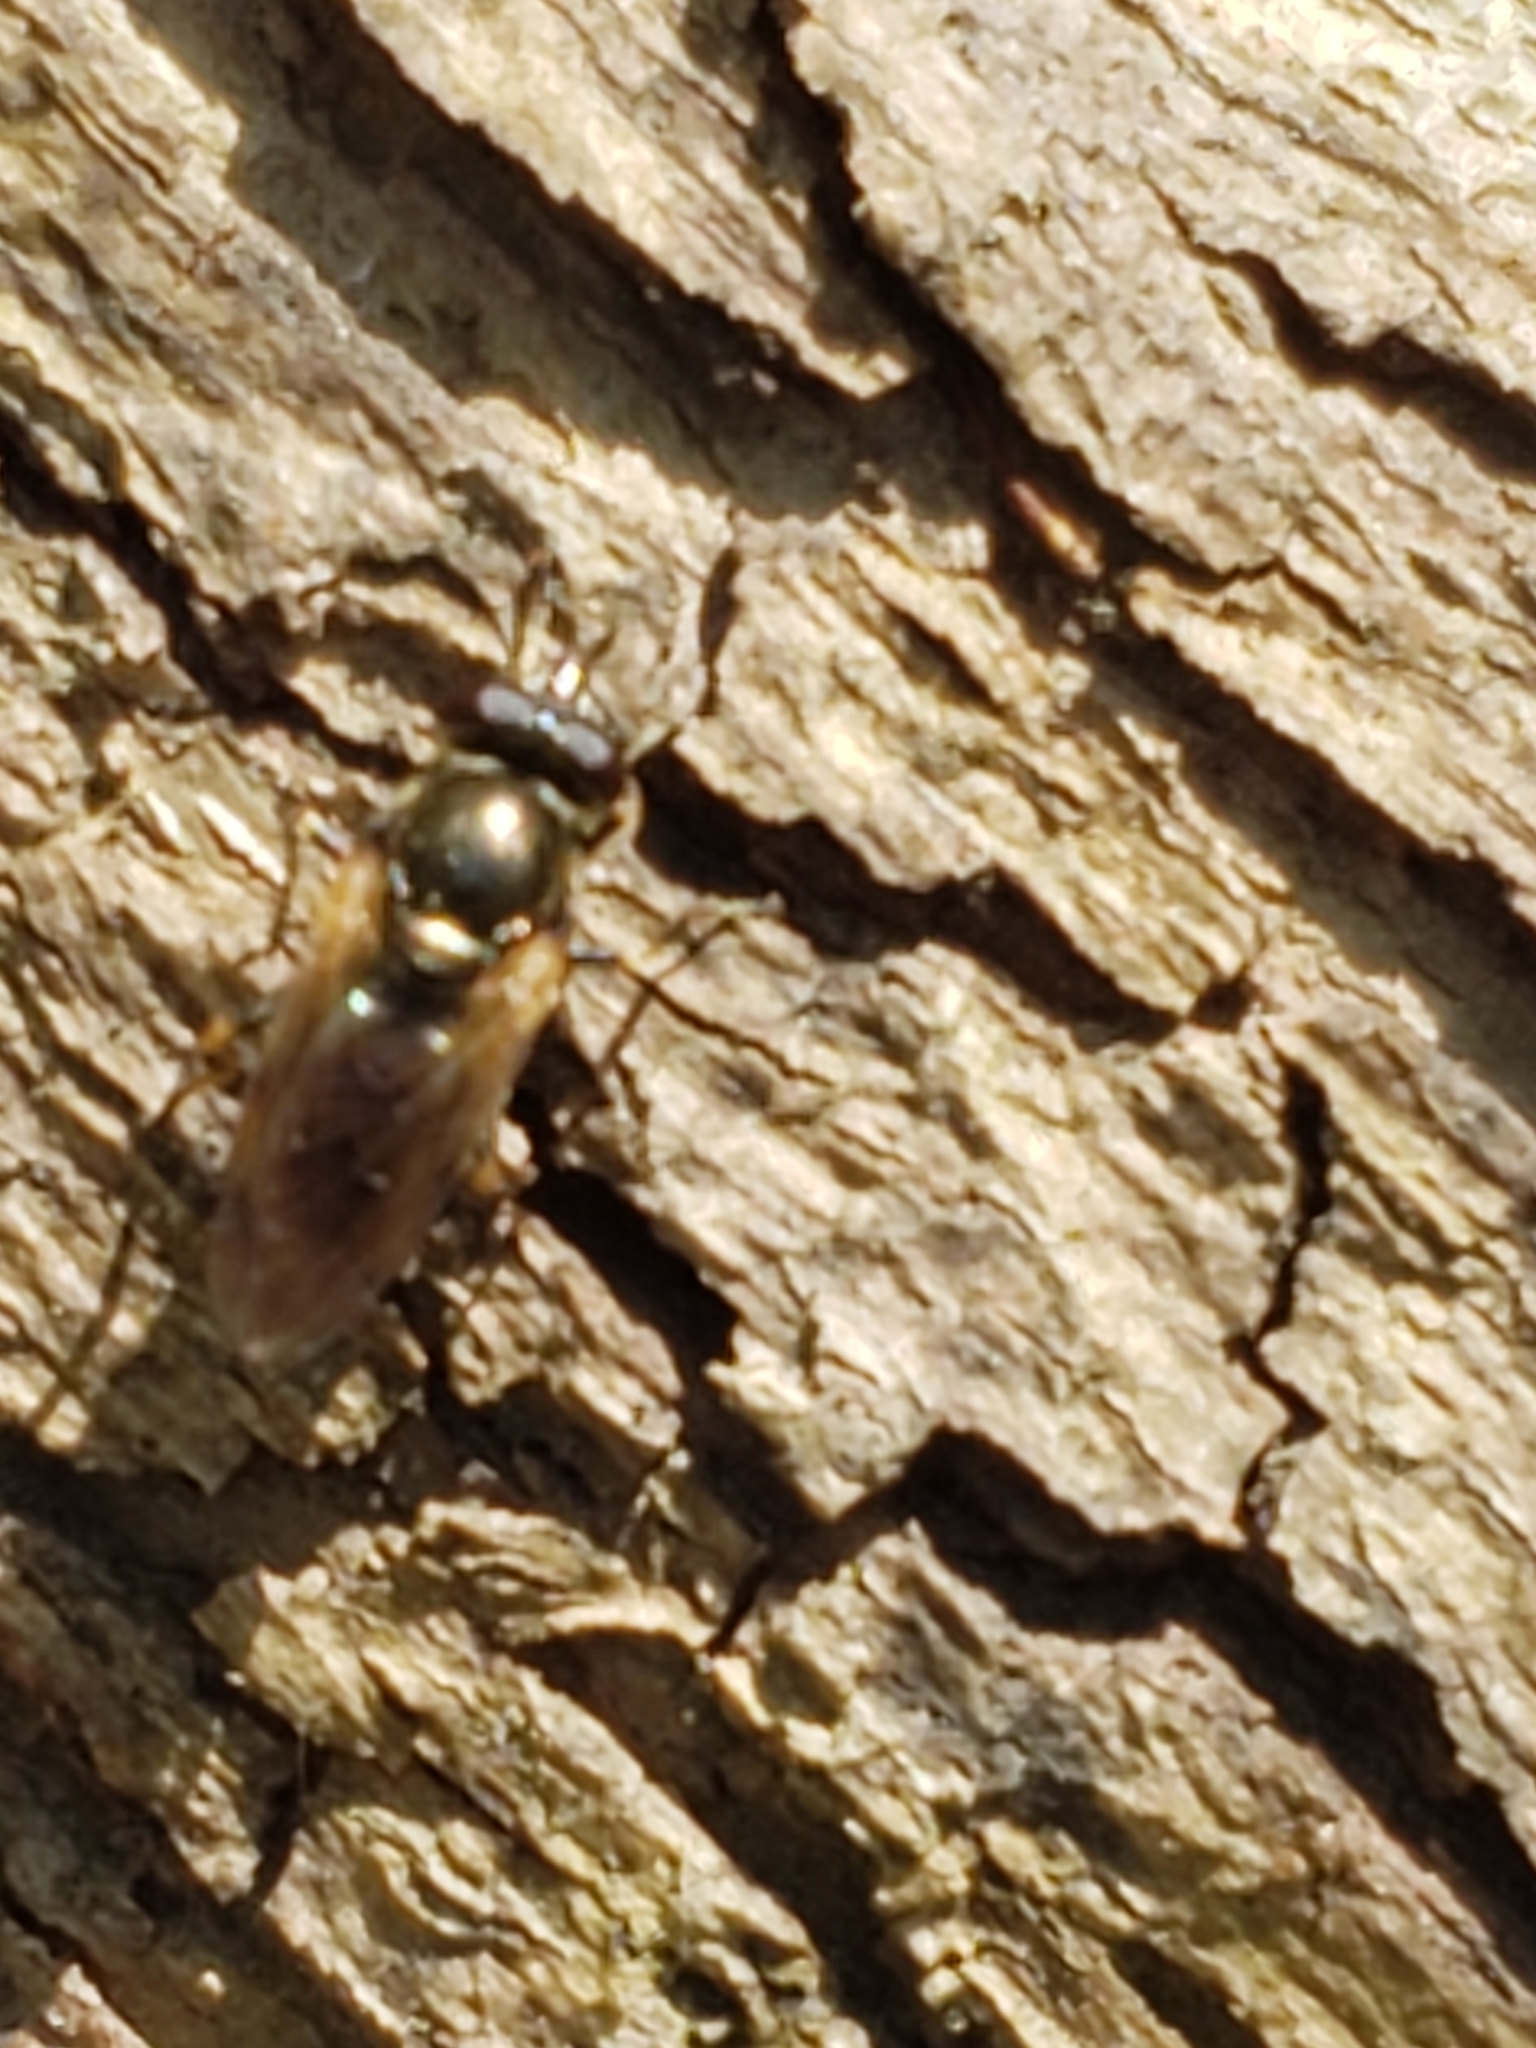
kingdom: Animalia
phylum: Arthropoda
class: Insecta
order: Diptera
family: Syrphidae
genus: Lejota
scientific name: Lejota aerea
